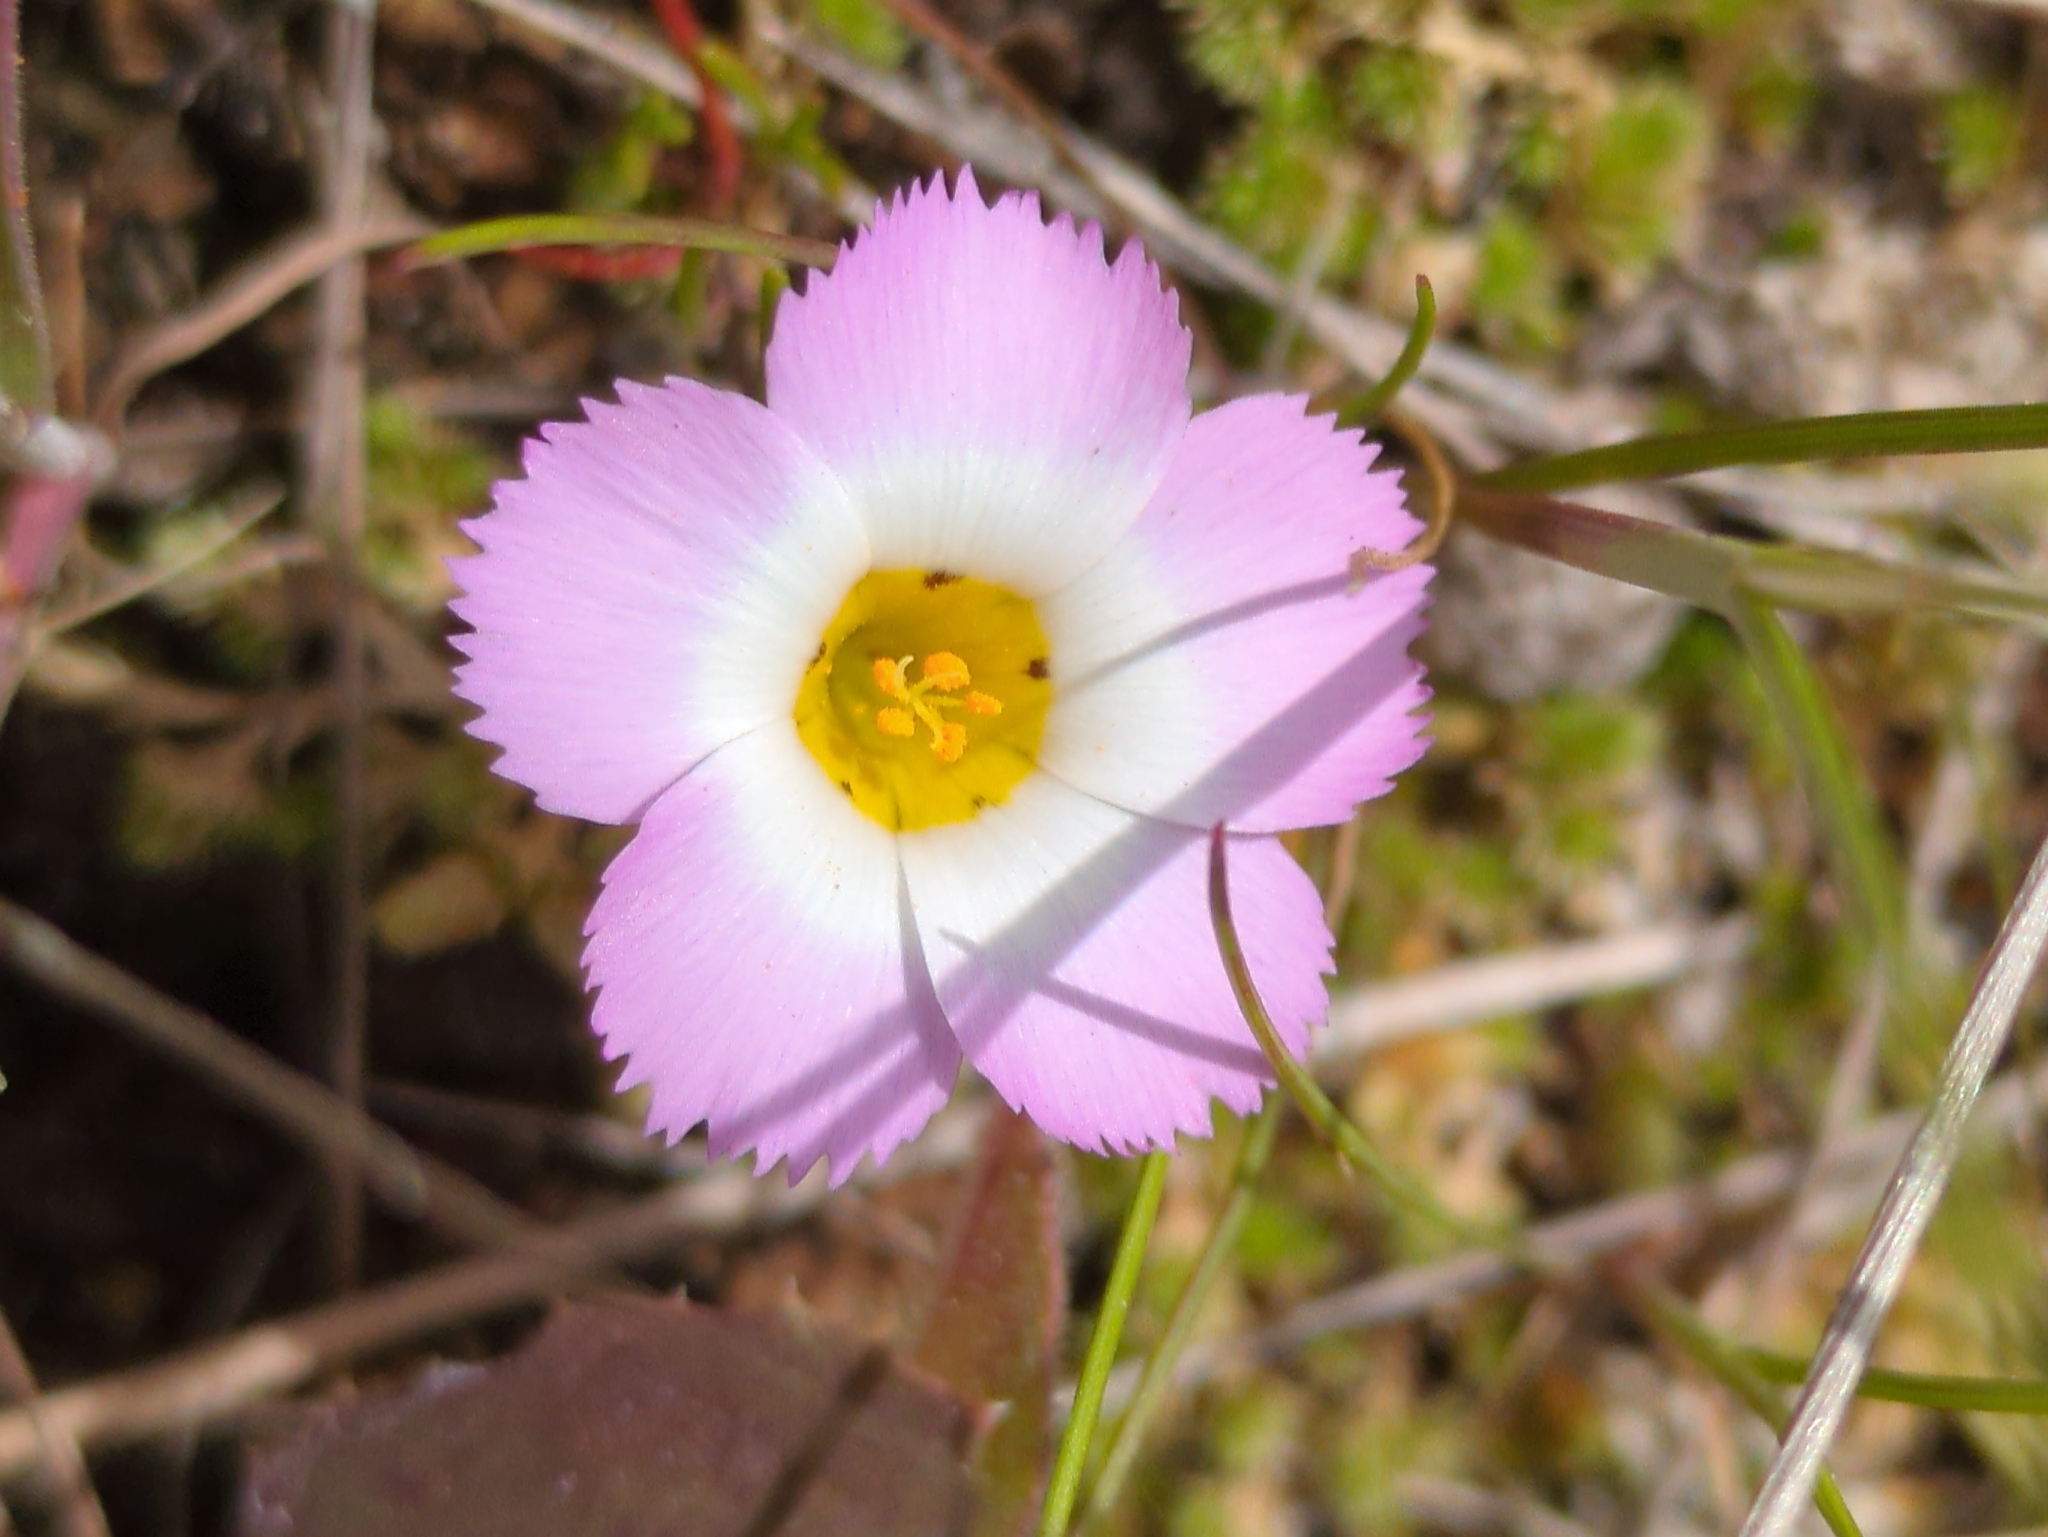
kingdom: Plantae
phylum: Tracheophyta
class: Magnoliopsida
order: Ericales
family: Polemoniaceae
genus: Linanthus
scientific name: Linanthus dianthiflorus
